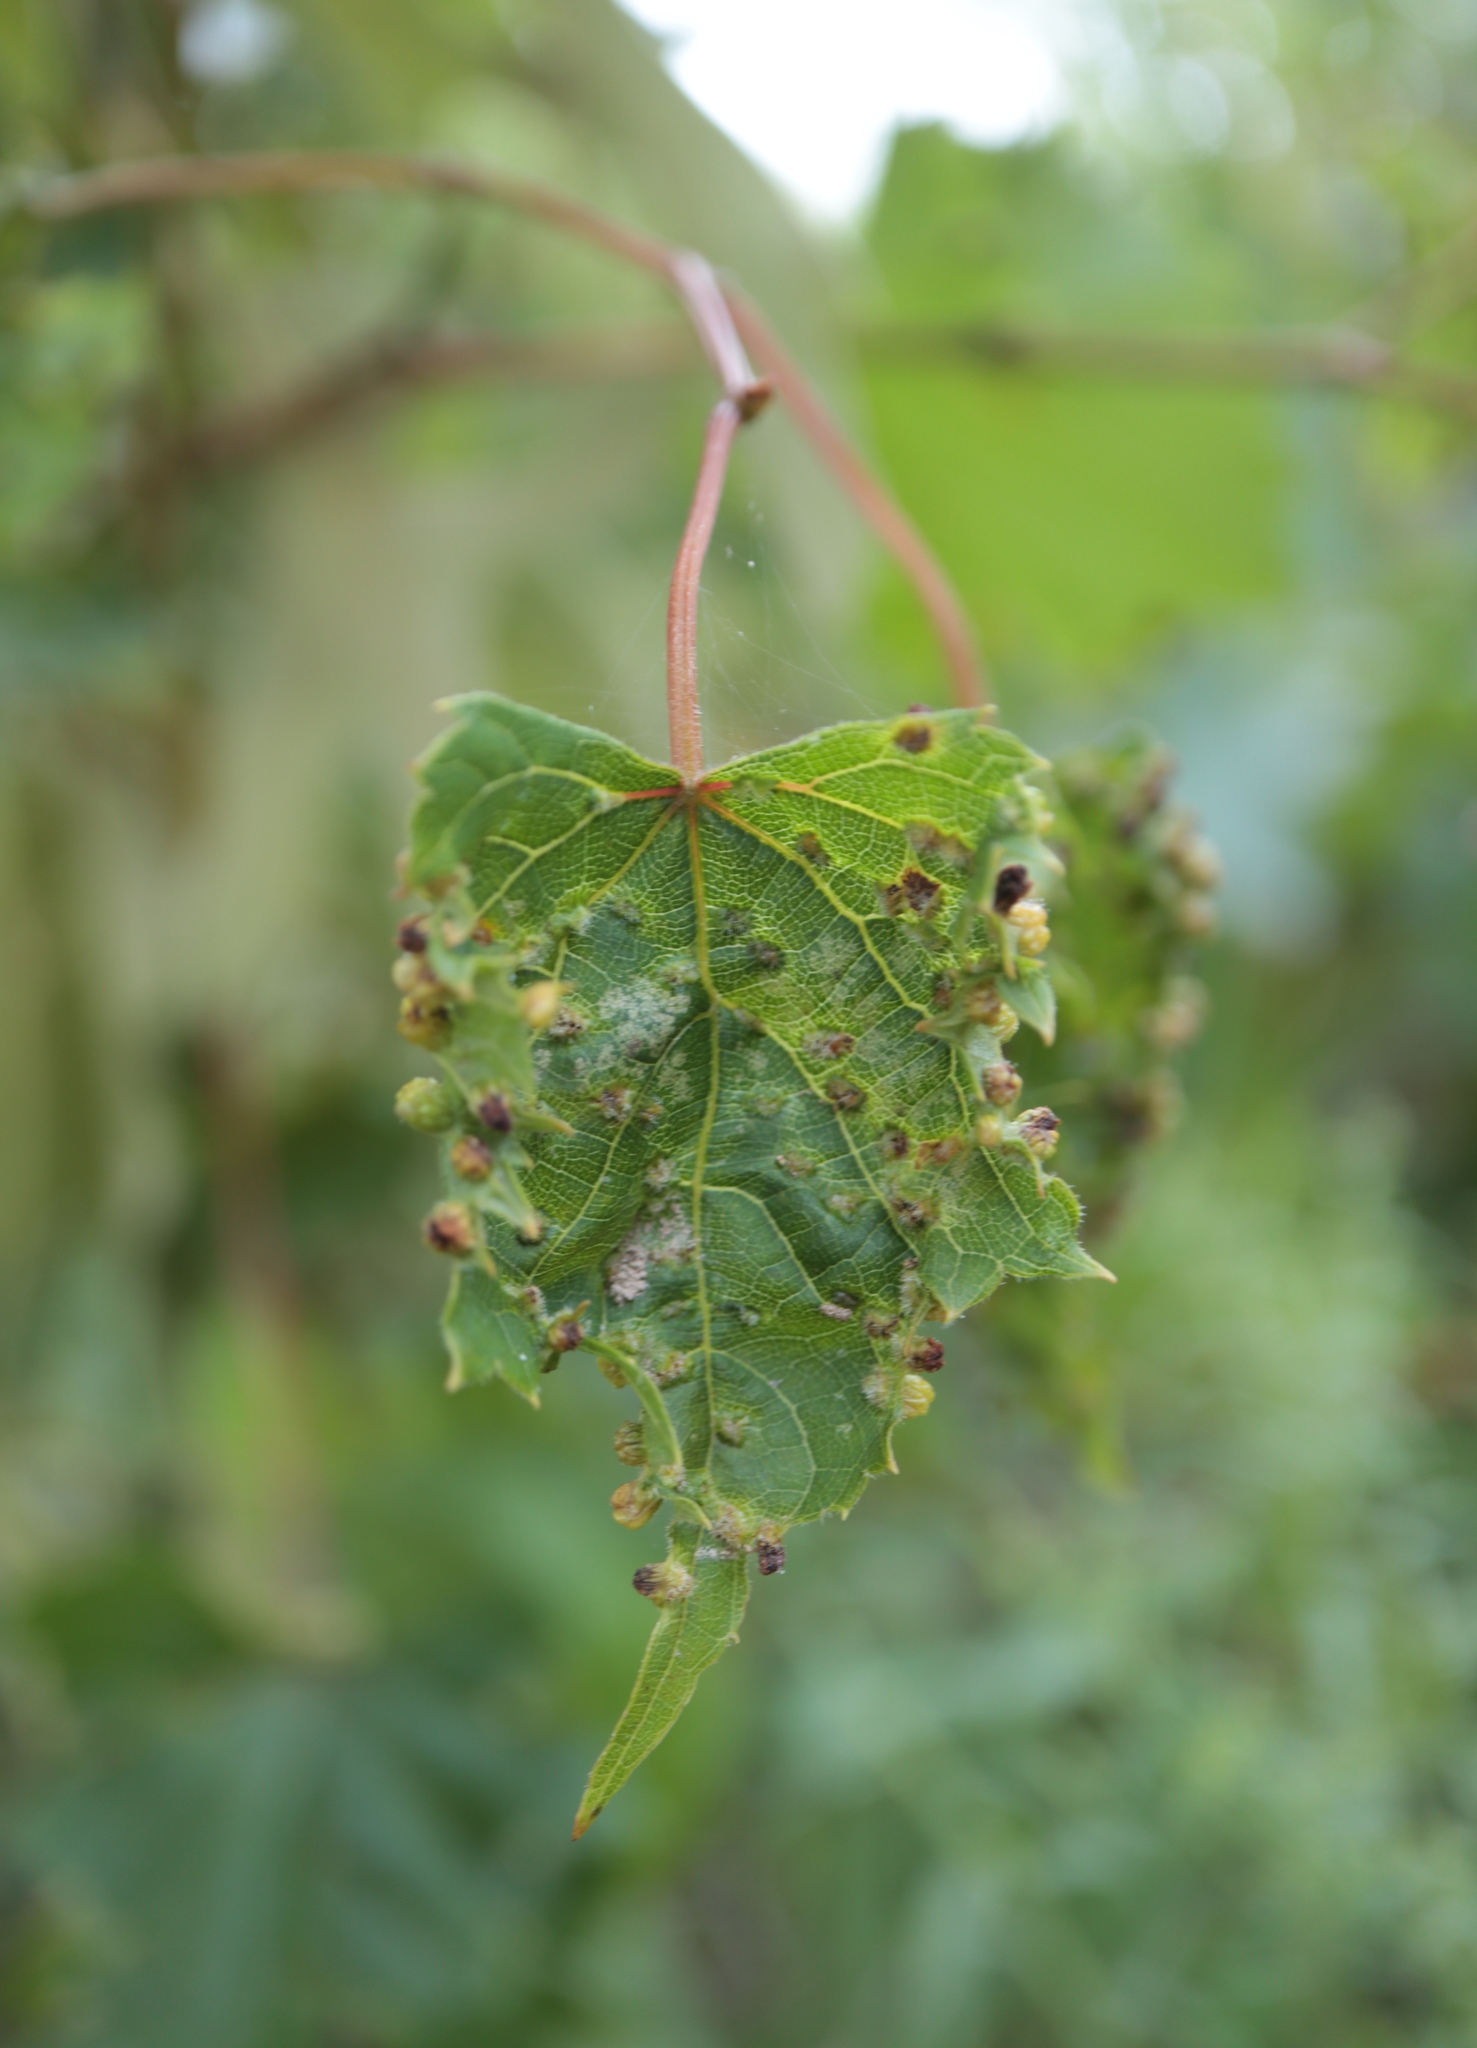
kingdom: Animalia
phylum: Arthropoda
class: Insecta
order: Hemiptera
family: Phylloxeridae
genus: Daktulosphaira
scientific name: Daktulosphaira vitifoliae
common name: Grape phylloxera
